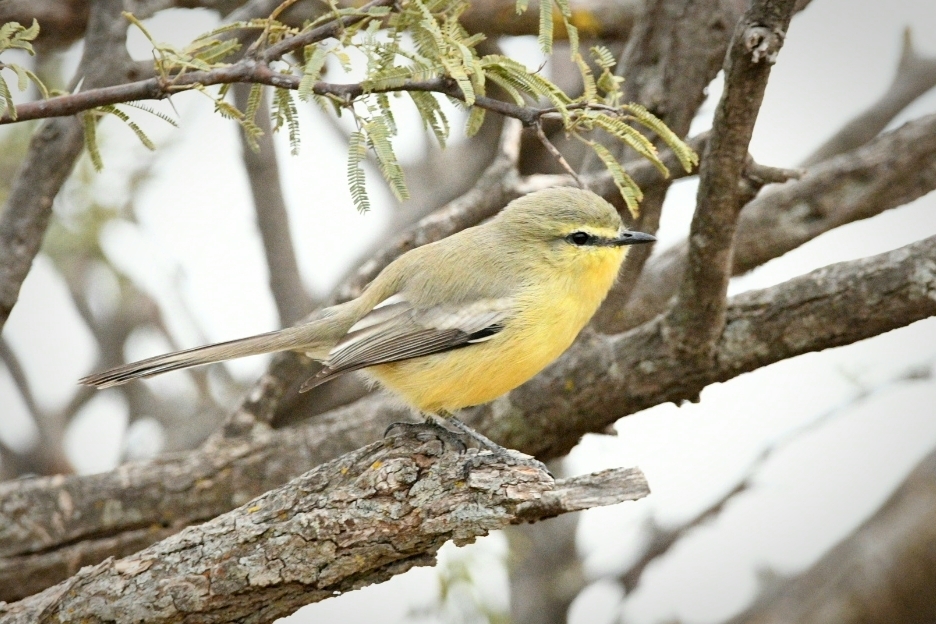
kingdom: Animalia
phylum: Chordata
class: Aves
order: Passeriformes
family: Tyrannidae
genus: Stigmatura
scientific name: Stigmatura budytoides
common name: Greater wagtail-tyrant
